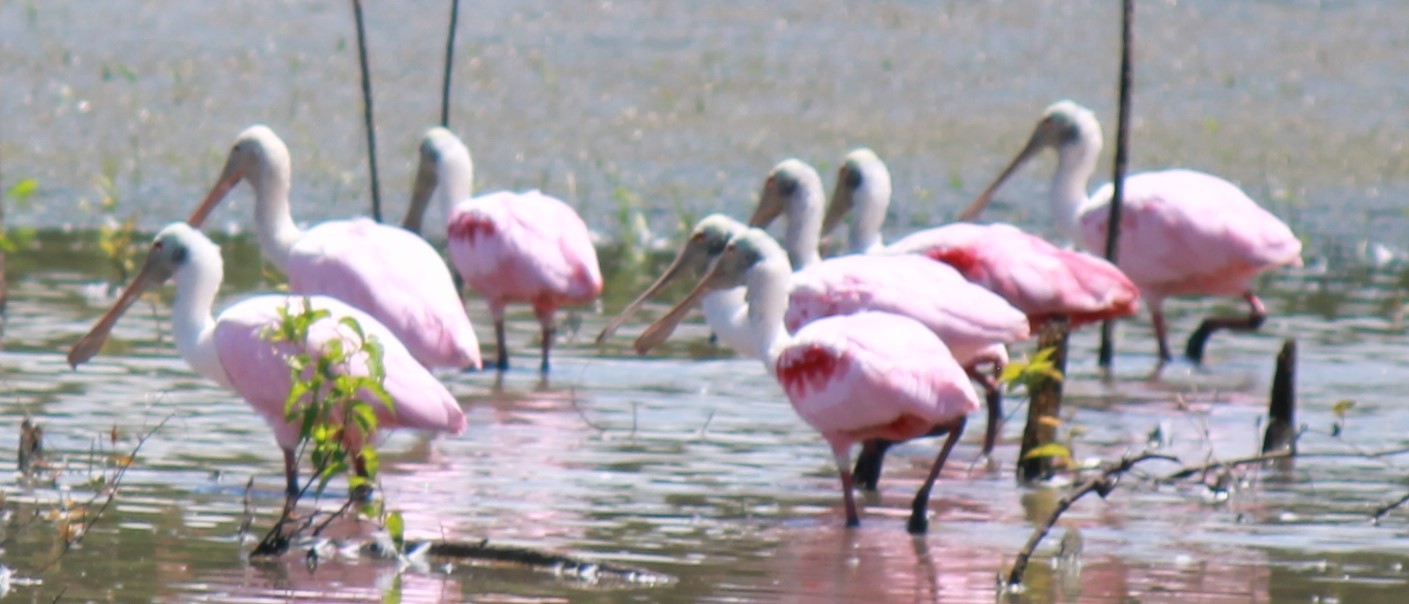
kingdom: Animalia
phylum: Chordata
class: Aves
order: Pelecaniformes
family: Threskiornithidae
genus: Platalea
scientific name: Platalea ajaja
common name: Roseate spoonbill
